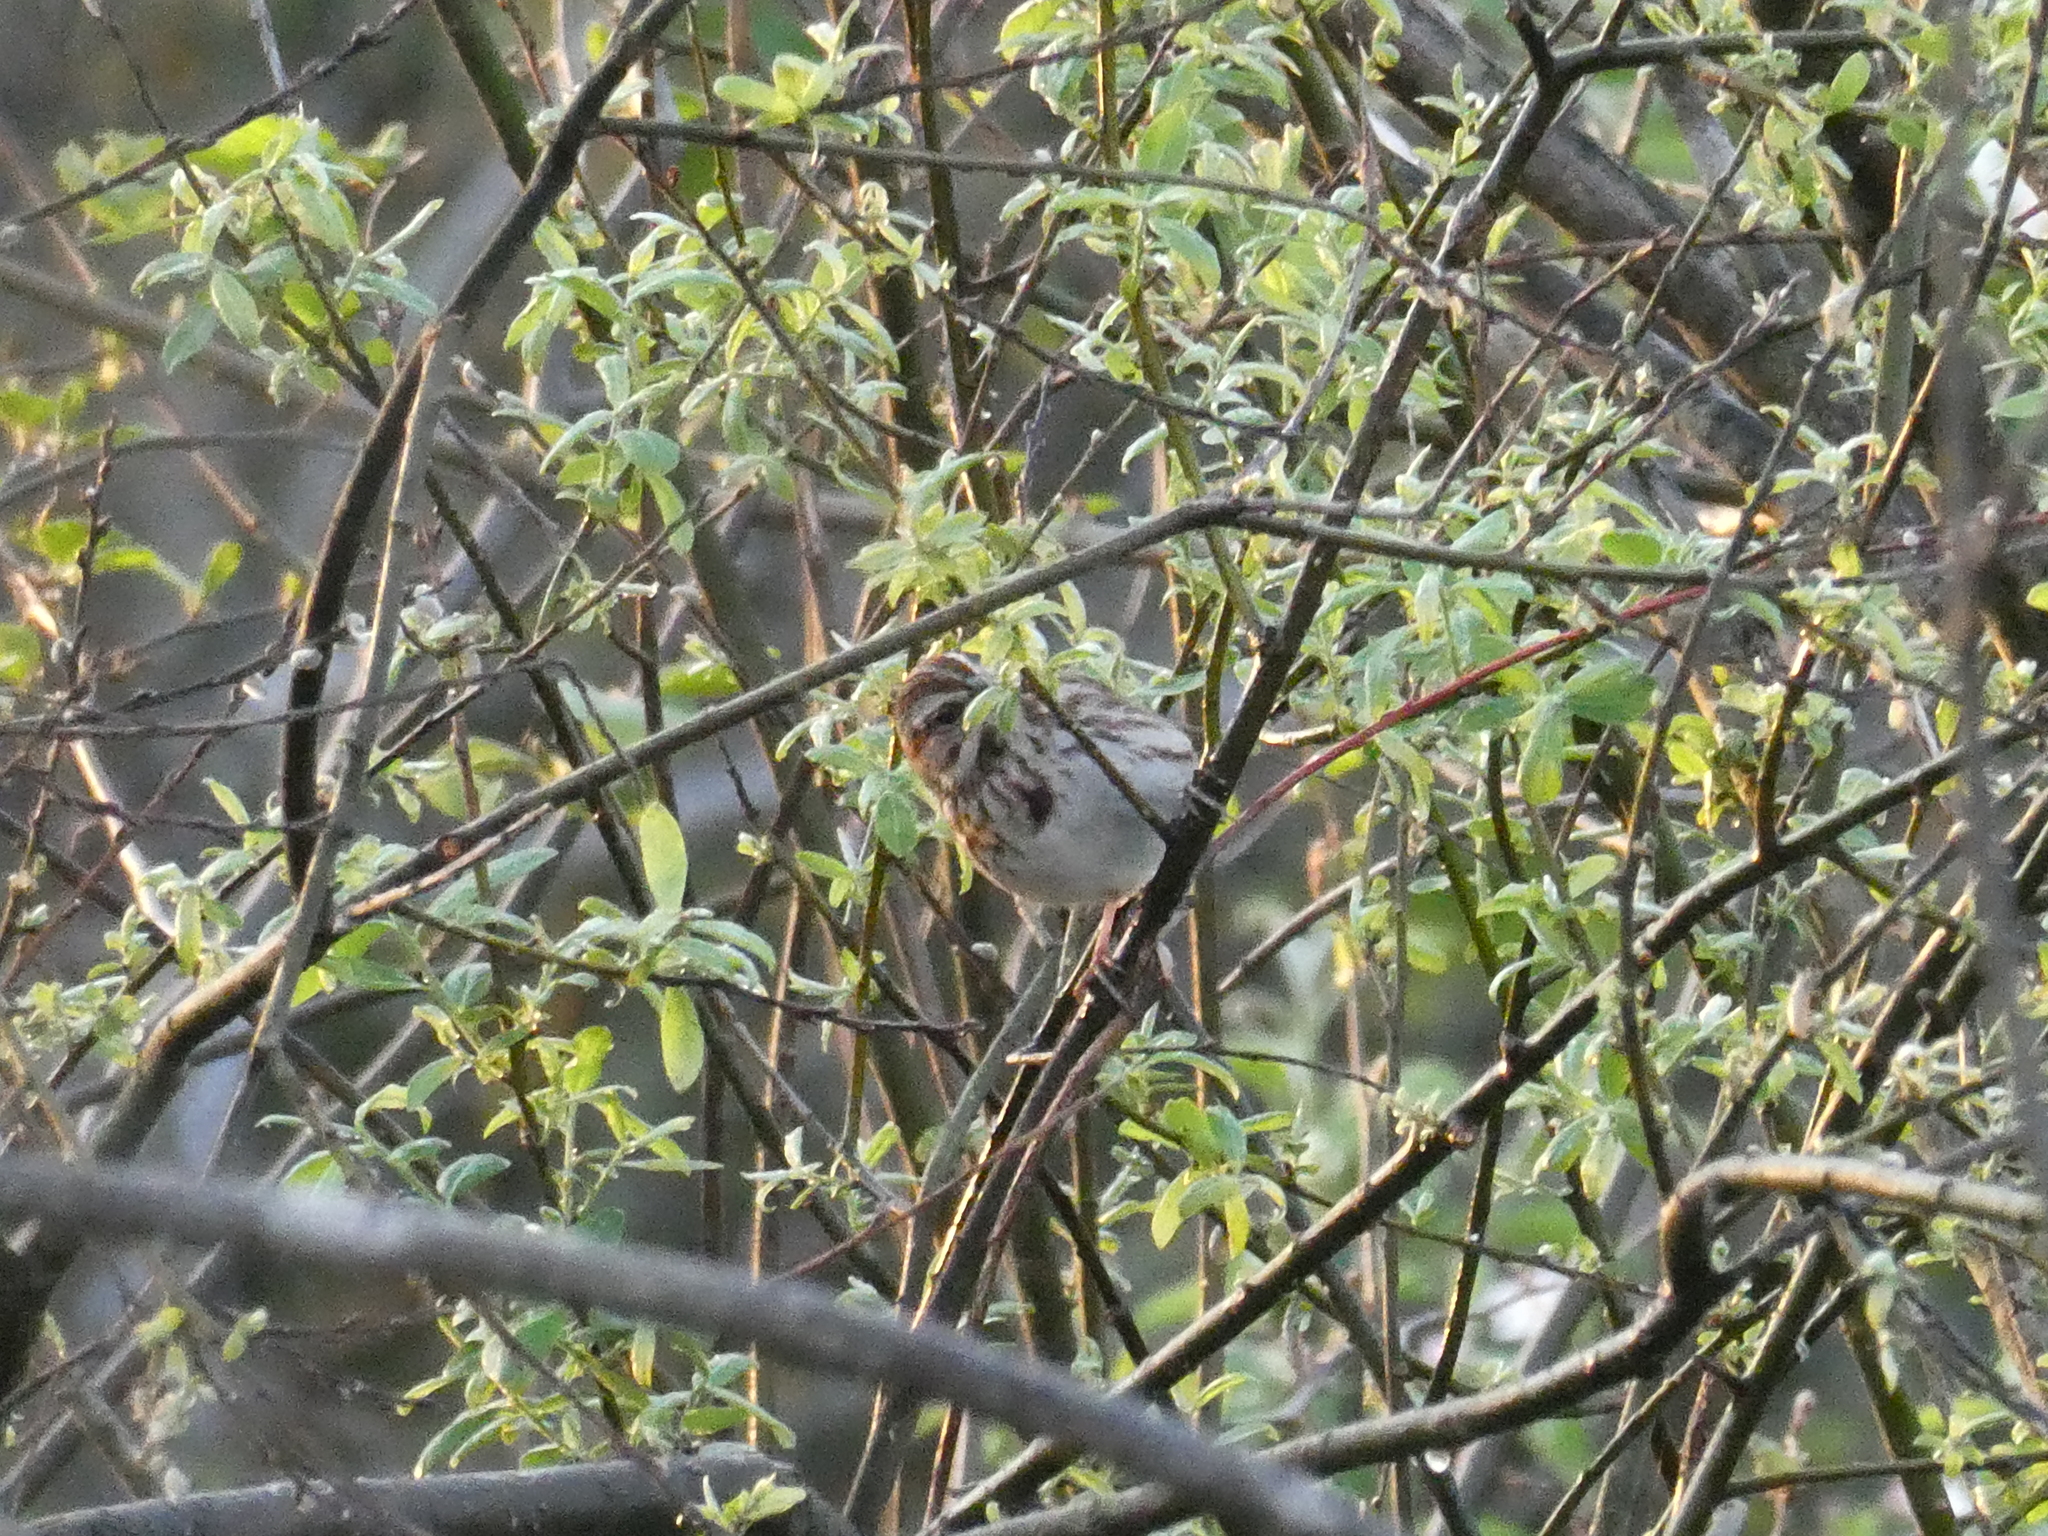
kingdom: Animalia
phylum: Chordata
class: Aves
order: Passeriformes
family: Passerellidae
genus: Melospiza
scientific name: Melospiza melodia
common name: Song sparrow
